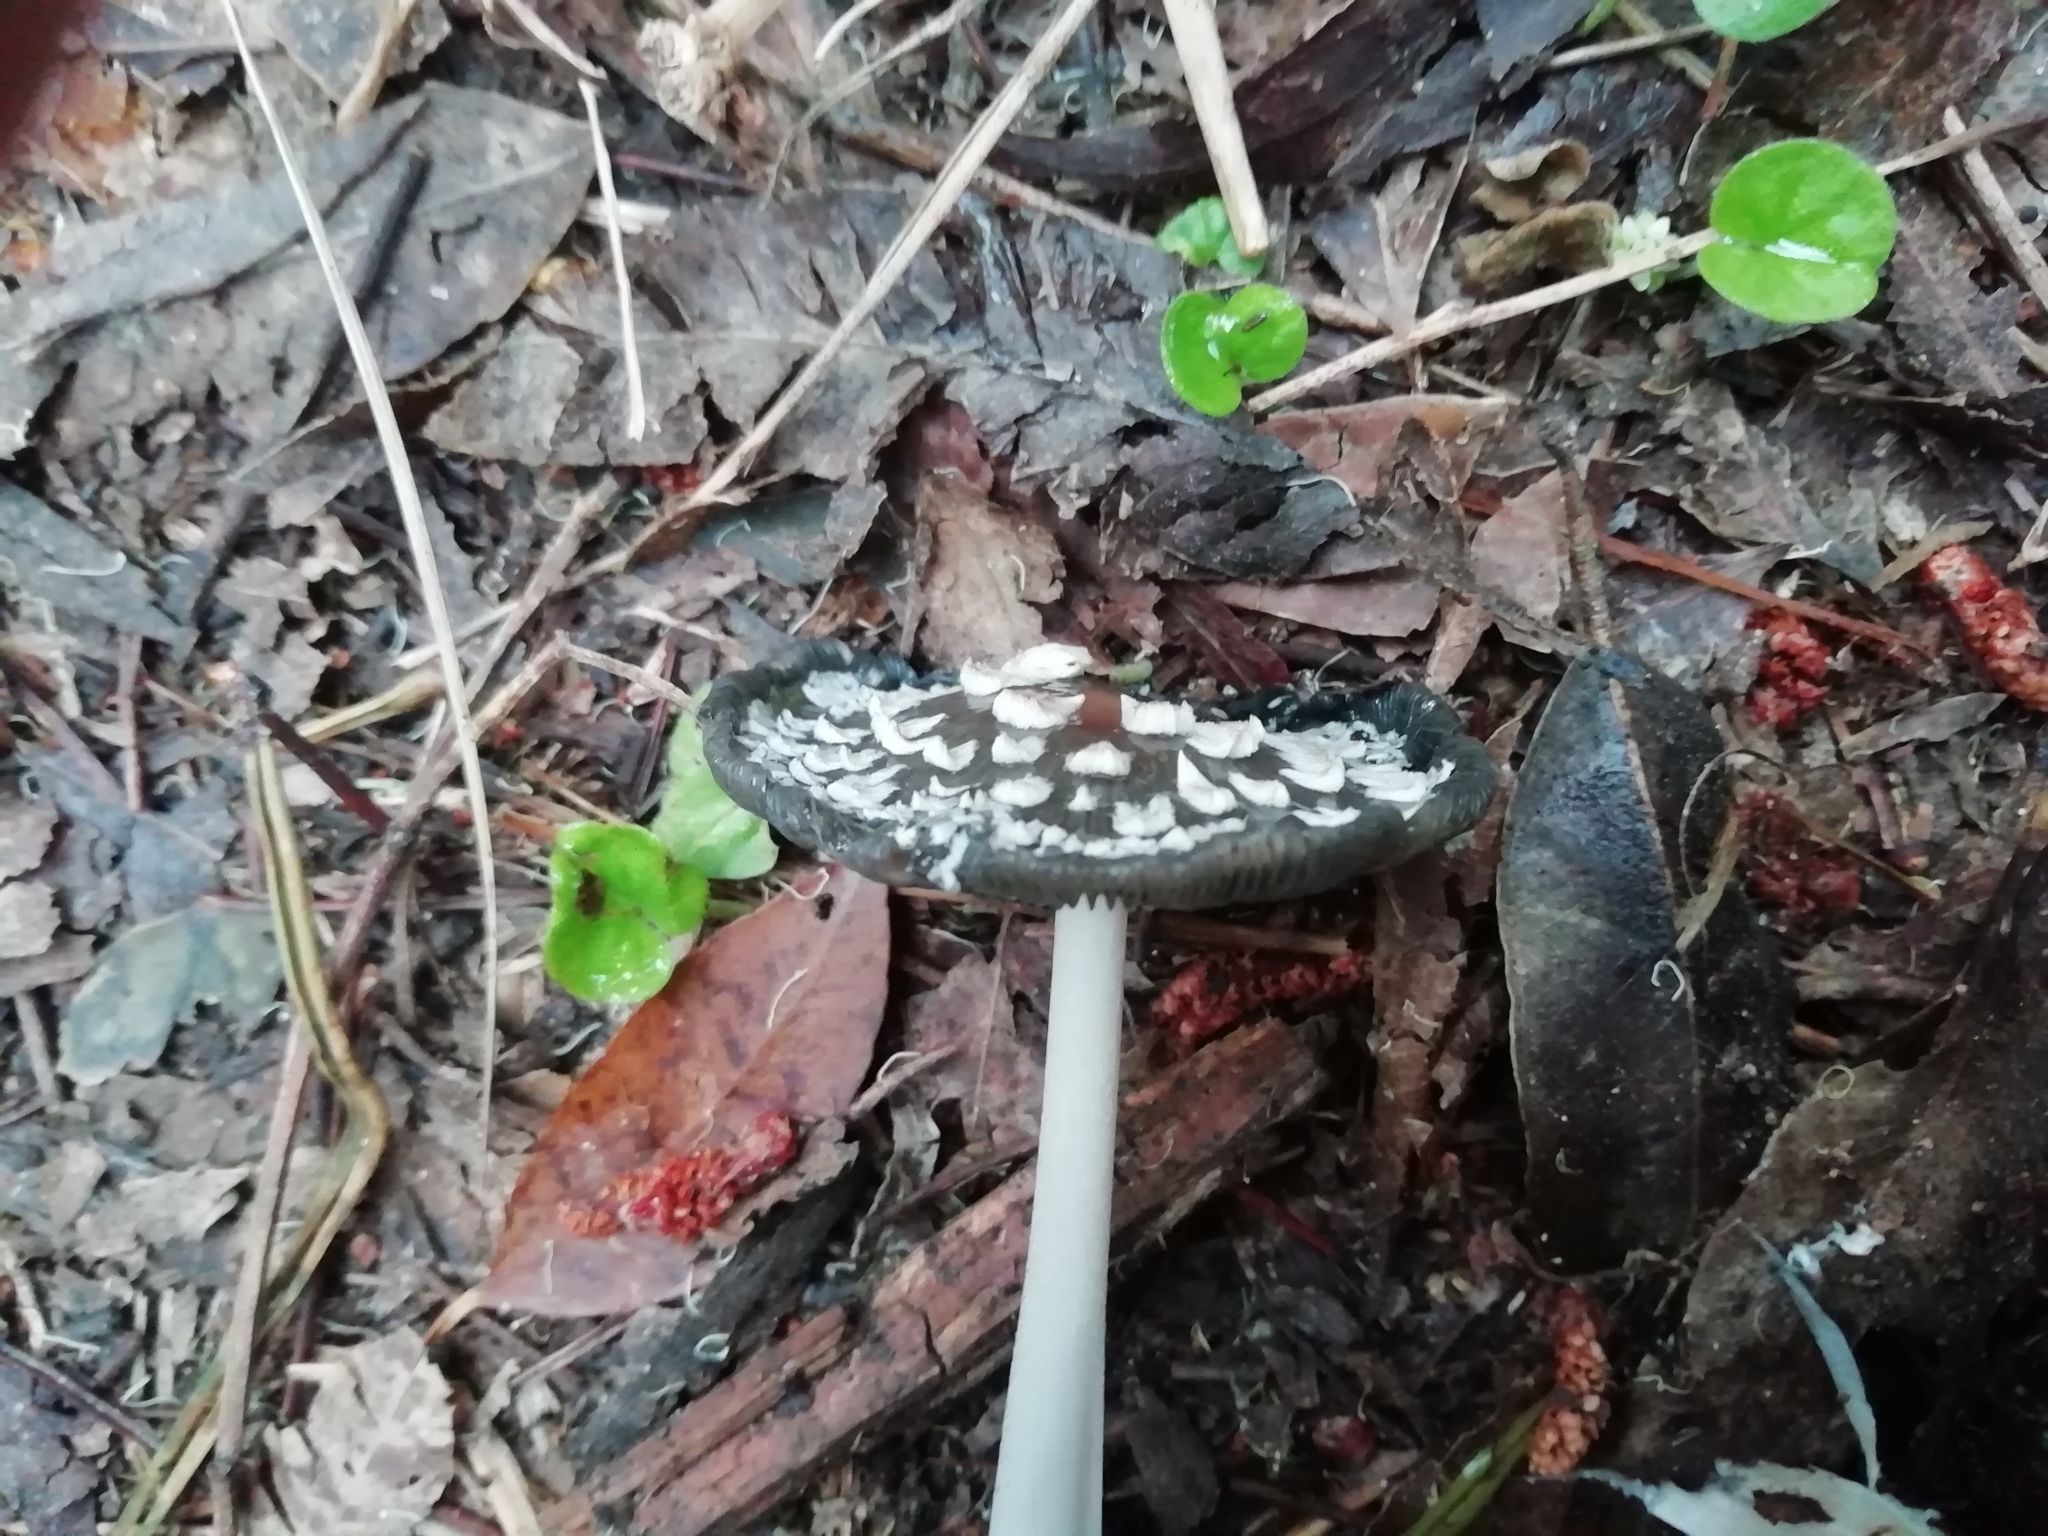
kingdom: Fungi
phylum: Basidiomycota
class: Agaricomycetes
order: Agaricales
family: Psathyrellaceae
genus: Coprinopsis
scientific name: Coprinopsis picacea
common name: Magpie inkcap
